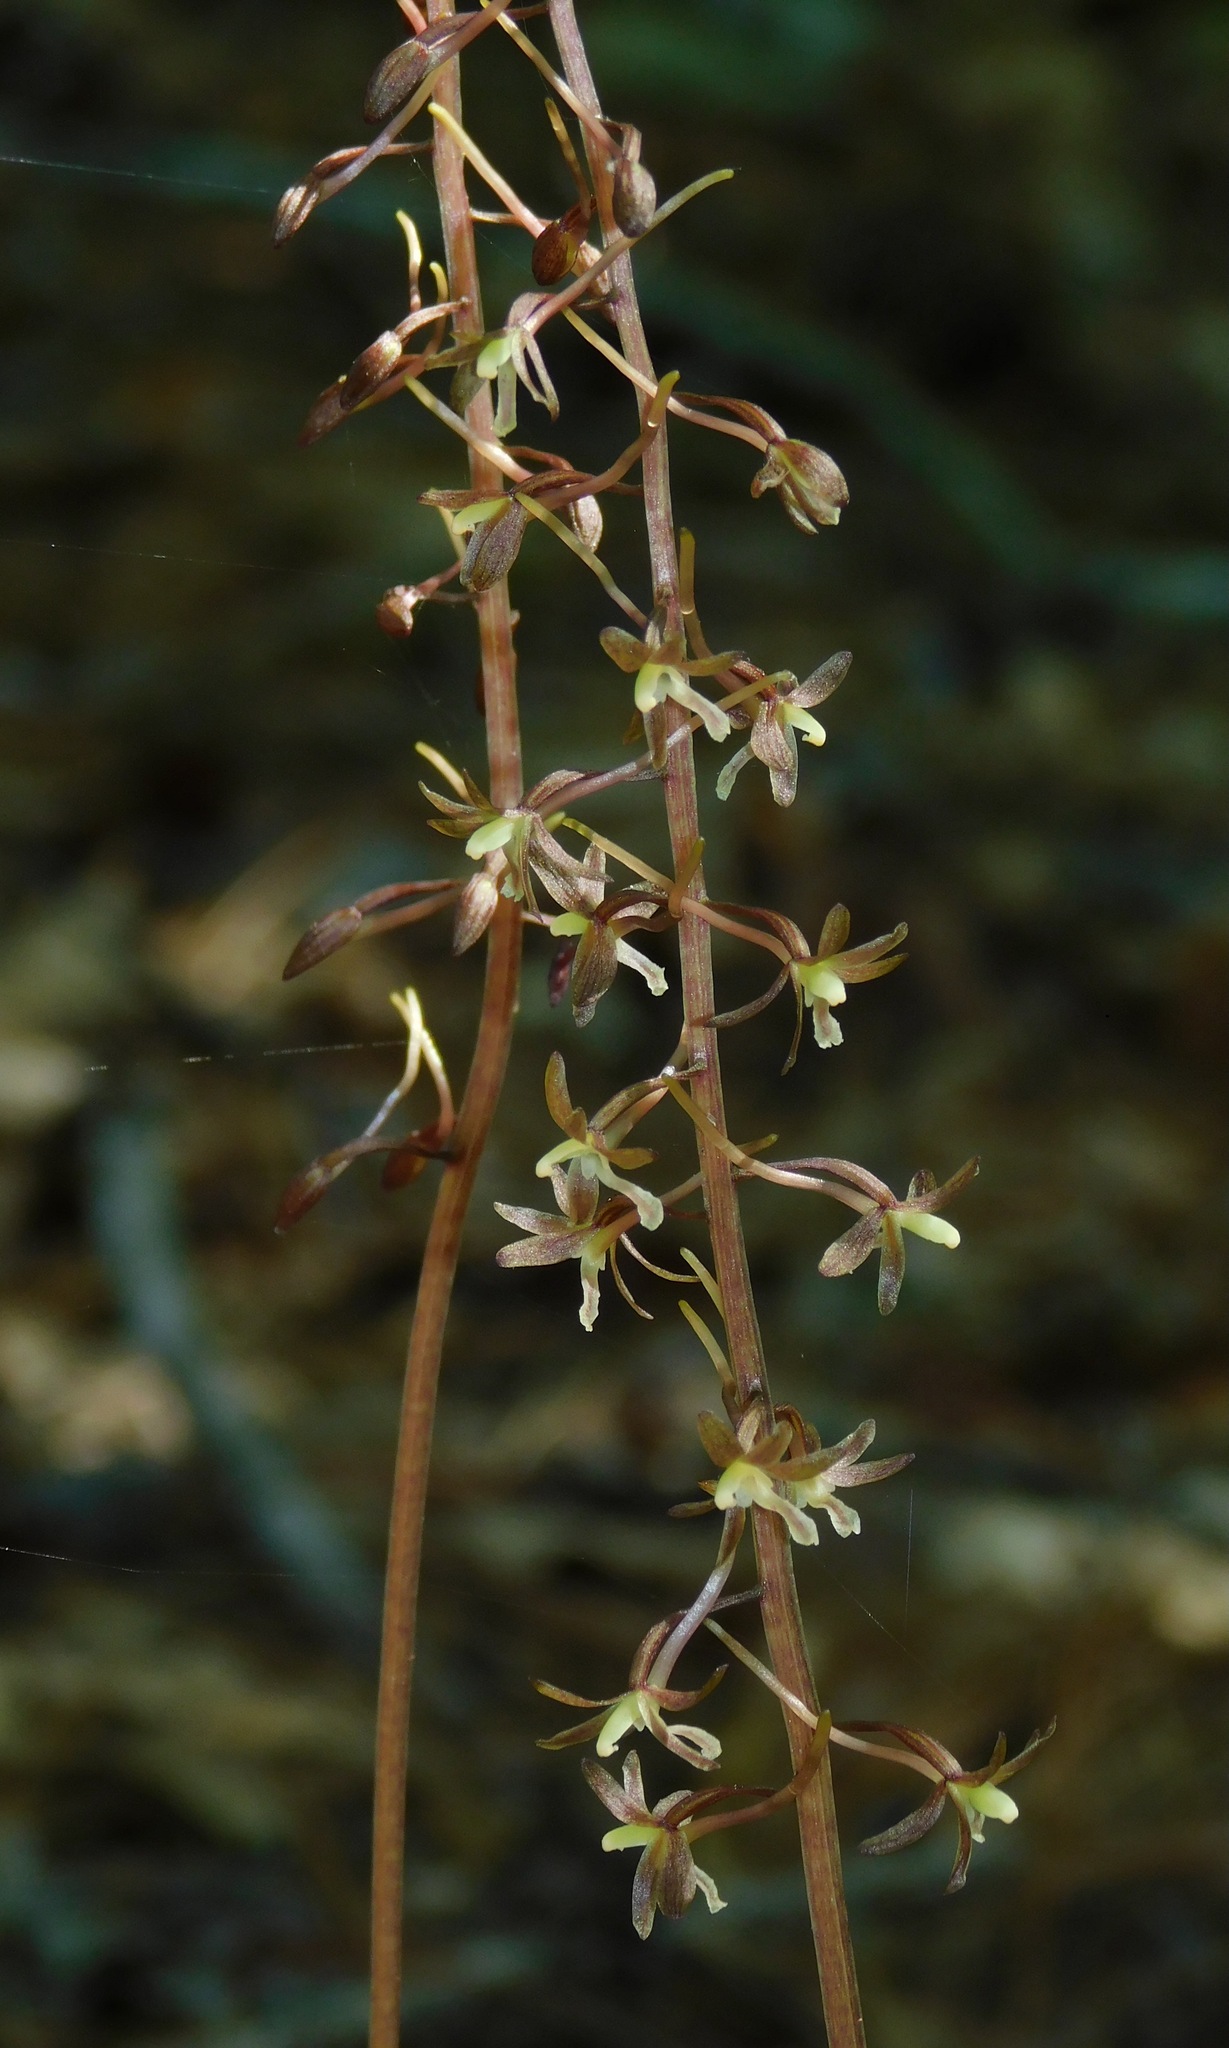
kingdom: Plantae
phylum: Tracheophyta
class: Liliopsida
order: Asparagales
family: Orchidaceae
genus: Tipularia
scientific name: Tipularia discolor
